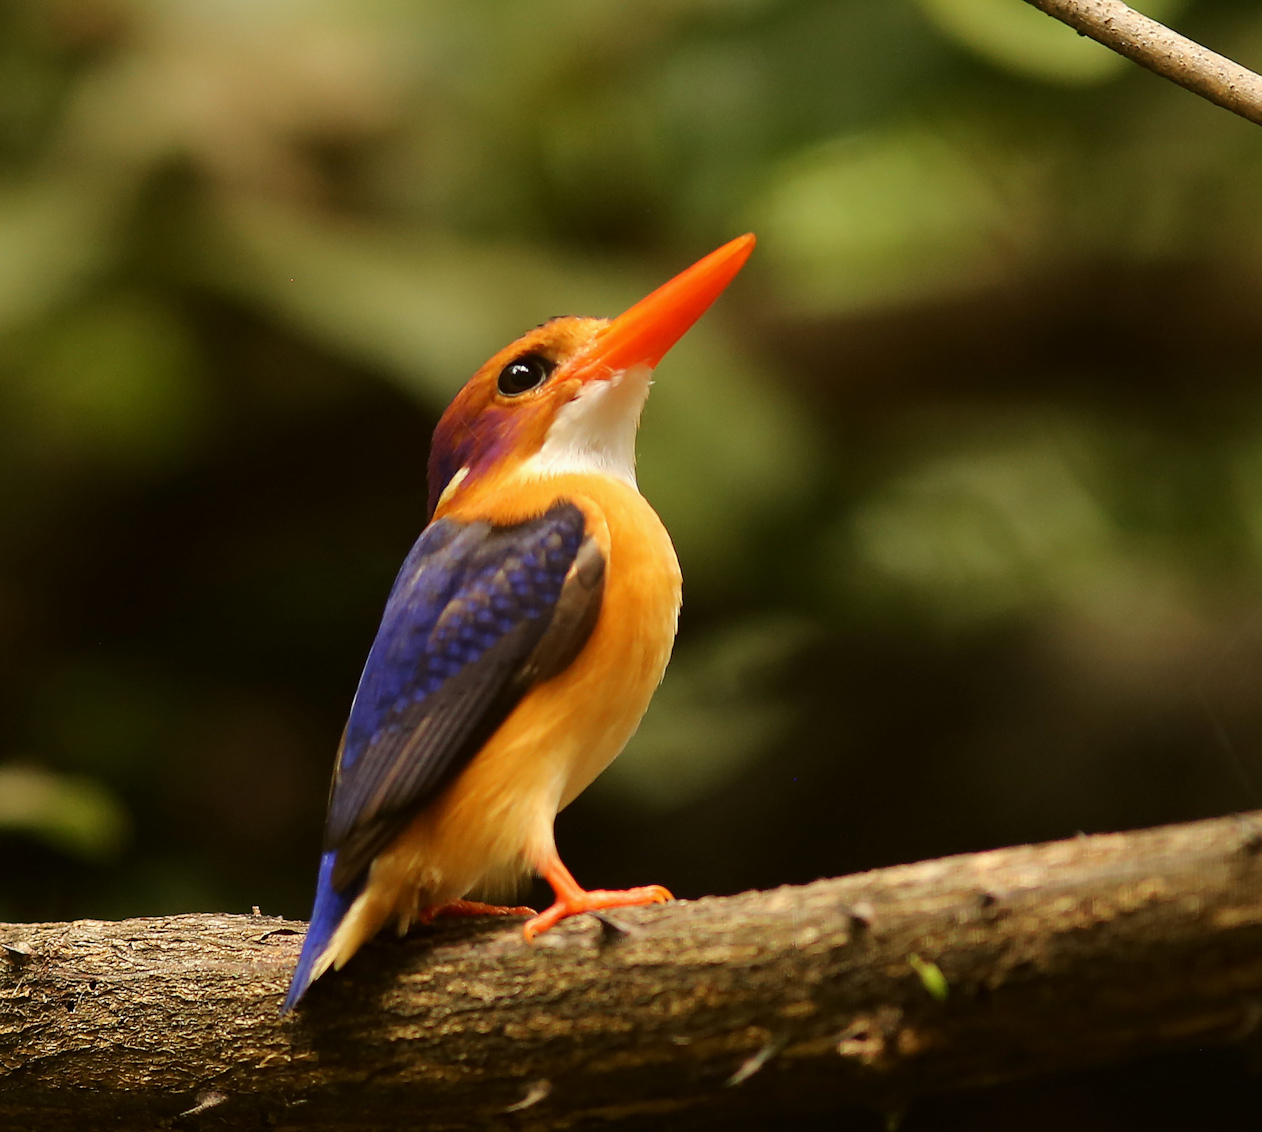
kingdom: Animalia
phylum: Chordata
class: Aves
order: Coraciiformes
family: Alcedinidae
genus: Ispidina
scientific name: Ispidina picta
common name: African pygmy-kingfisher
